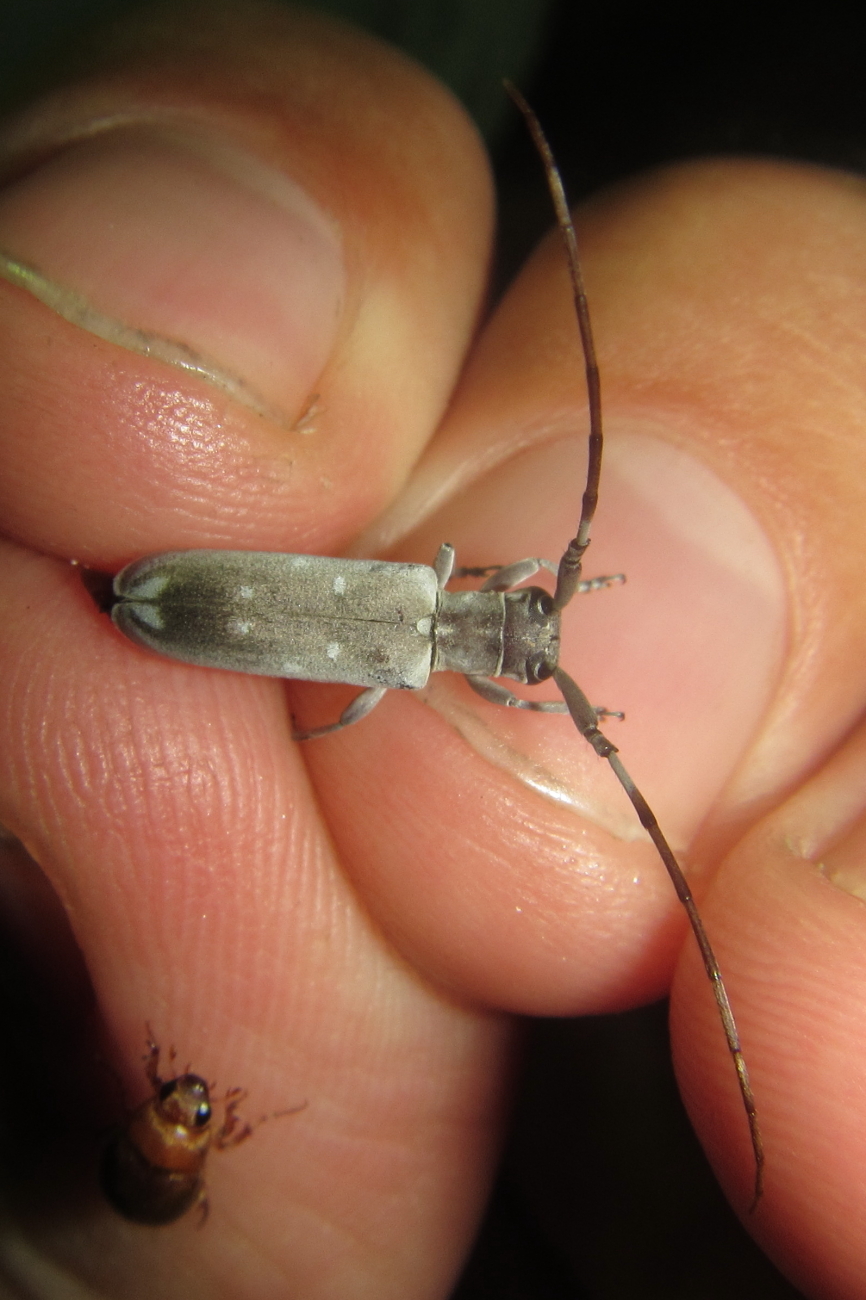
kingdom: Animalia
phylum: Arthropoda
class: Insecta
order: Coleoptera
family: Cerambycidae
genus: Eunidia
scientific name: Eunidia thomseni
